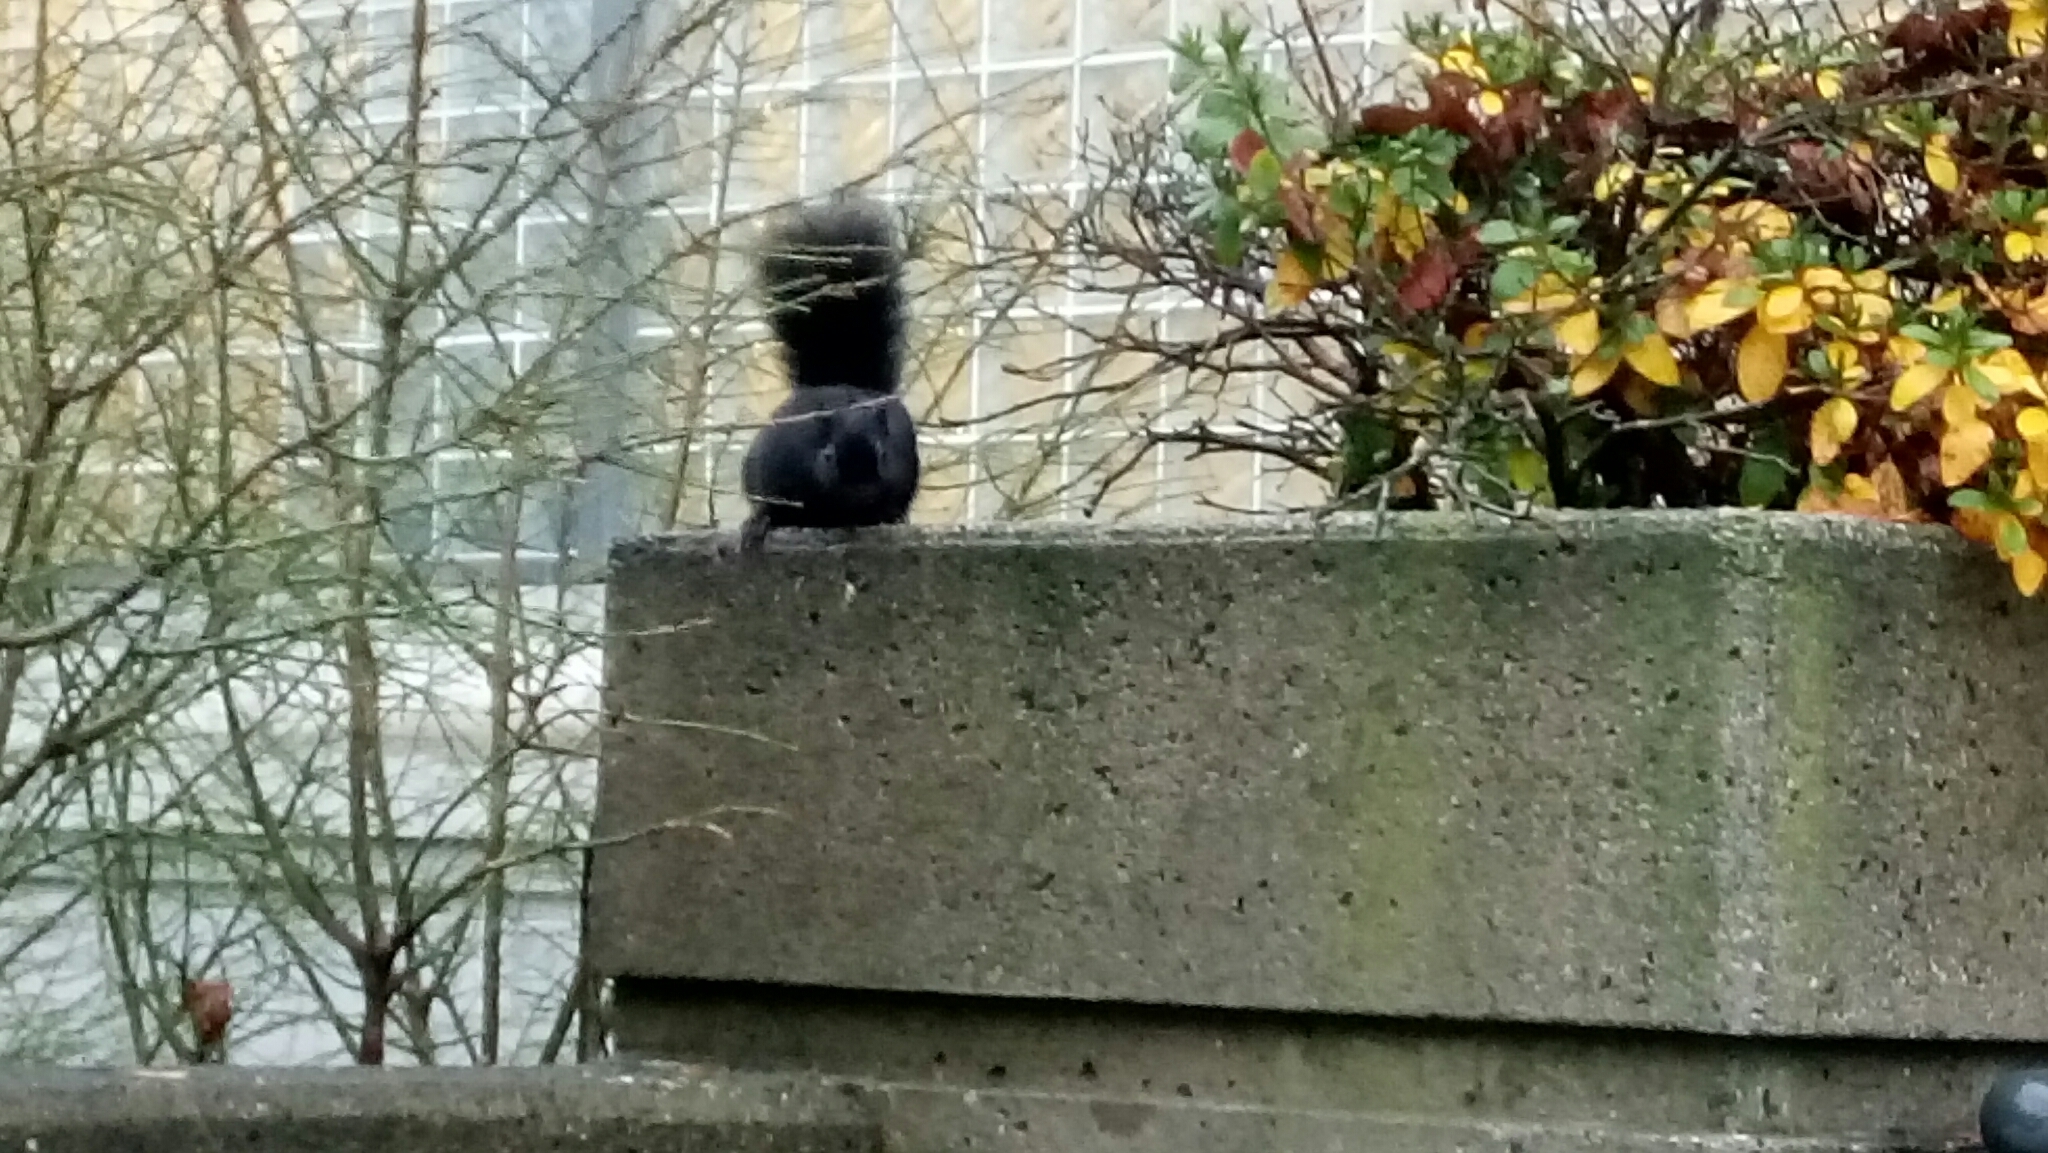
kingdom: Animalia
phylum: Chordata
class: Mammalia
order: Rodentia
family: Sciuridae
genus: Sciurus
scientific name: Sciurus carolinensis
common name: Eastern gray squirrel
